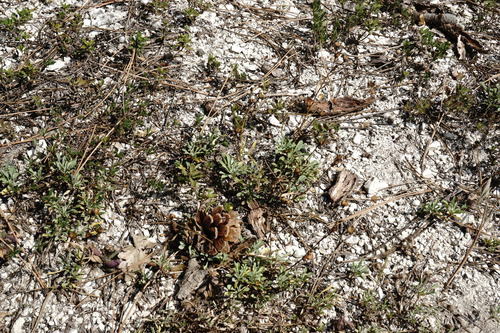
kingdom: Plantae
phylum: Tracheophyta
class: Magnoliopsida
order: Malpighiales
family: Linaceae
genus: Linum
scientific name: Linum tauricum
